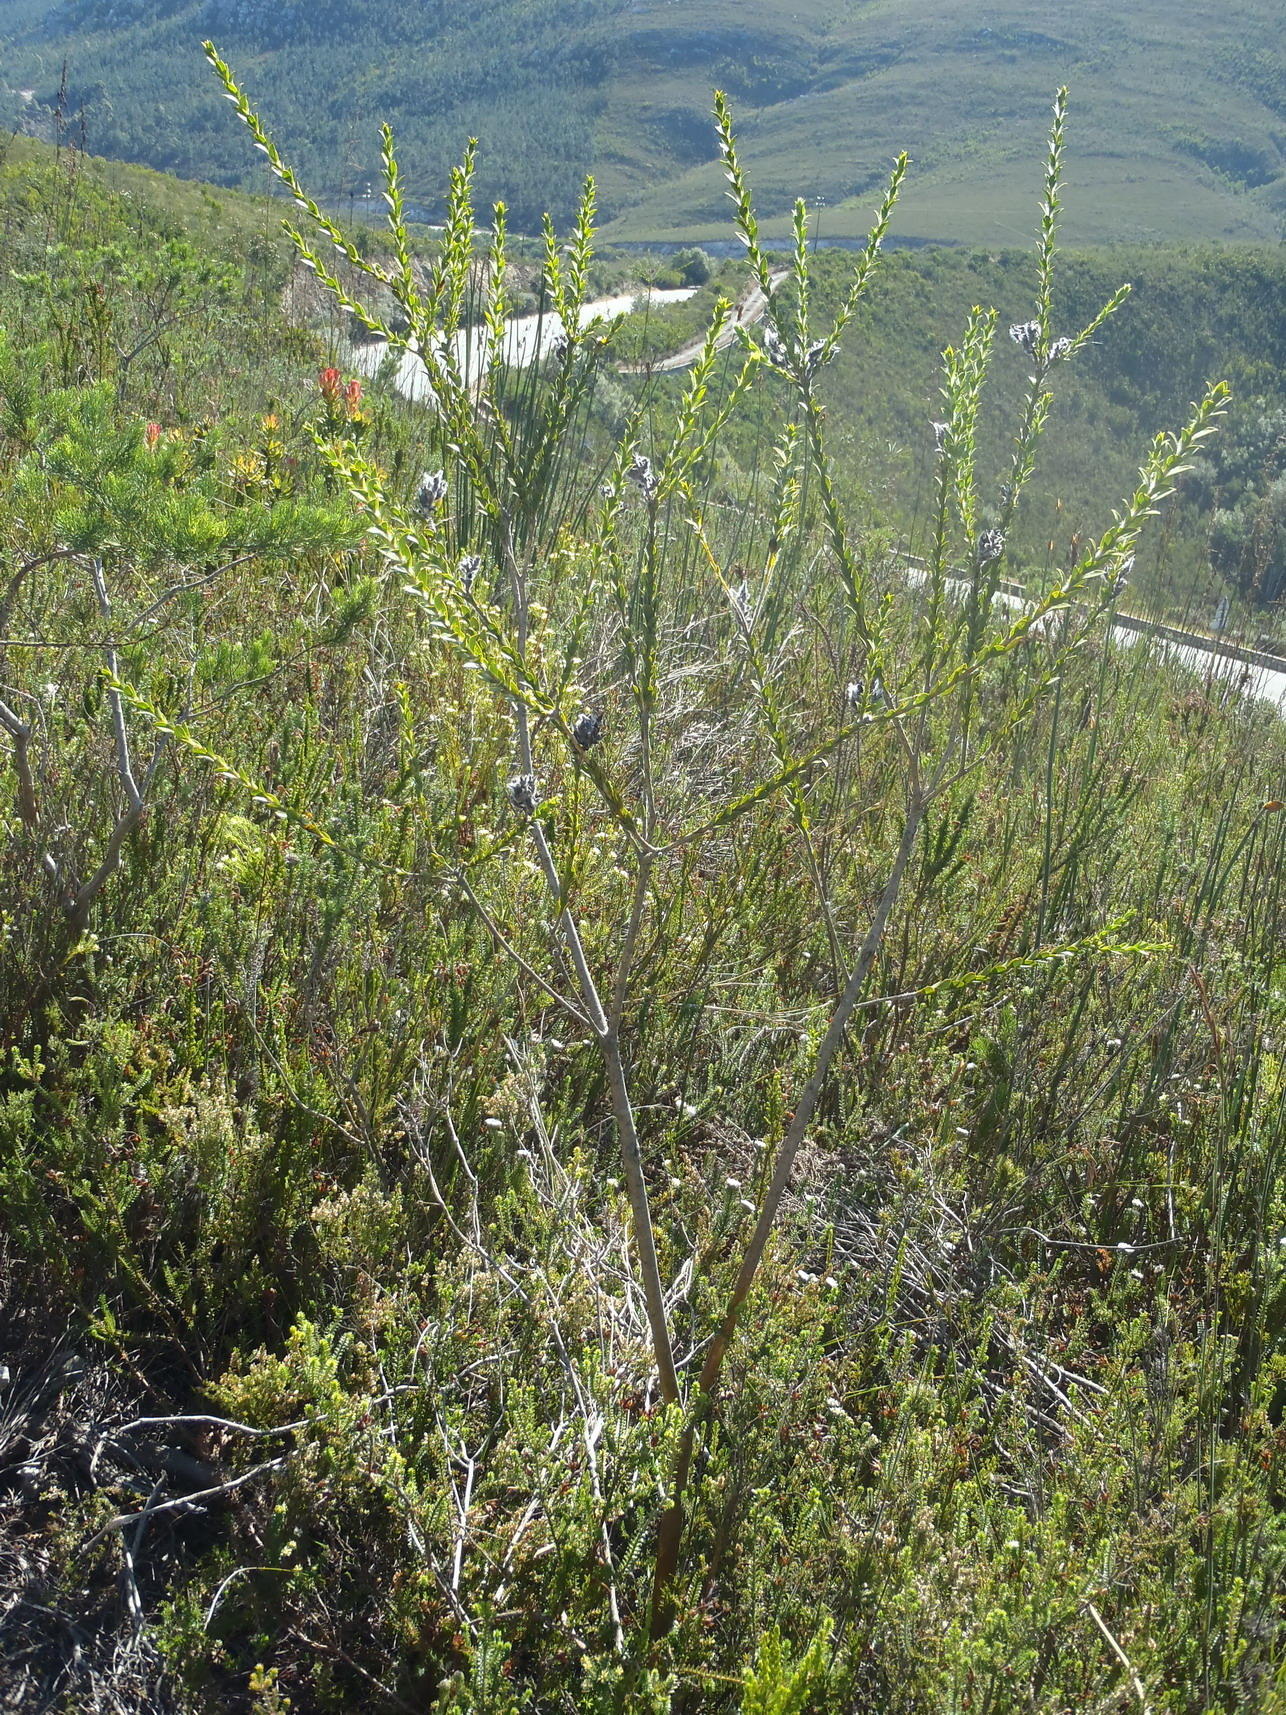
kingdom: Plantae
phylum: Tracheophyta
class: Magnoliopsida
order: Fabales
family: Fabaceae
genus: Liparia
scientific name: Liparia hirsuta
